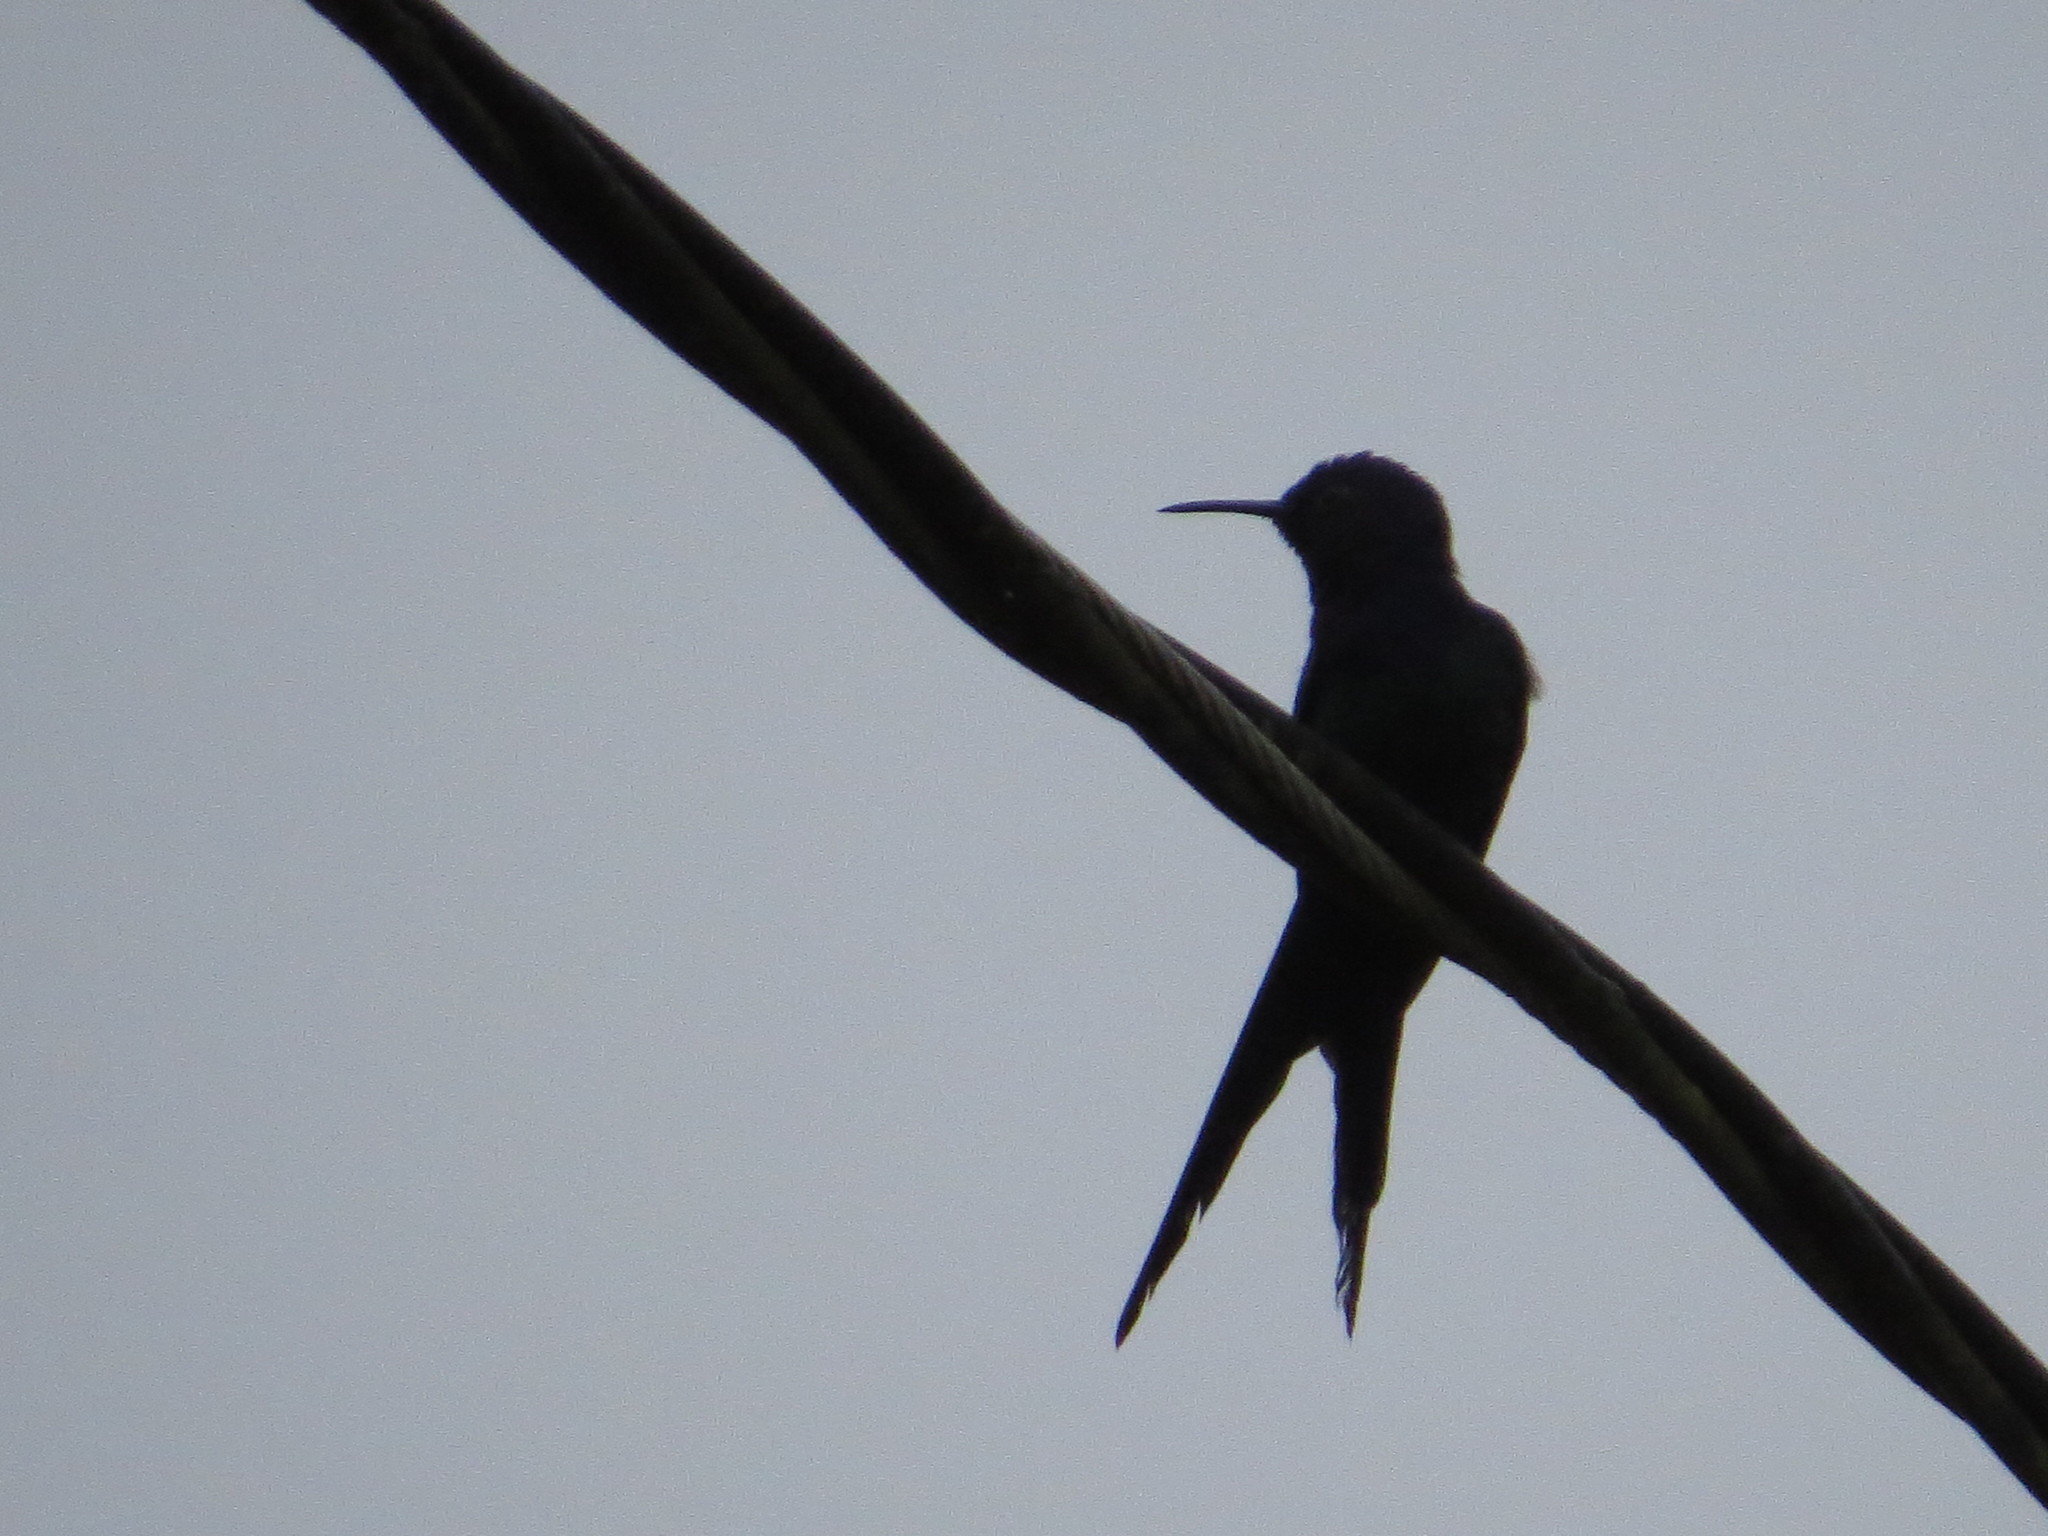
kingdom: Animalia
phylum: Chordata
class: Aves
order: Apodiformes
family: Trochilidae
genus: Eupetomena
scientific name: Eupetomena macroura
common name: Swallow-tailed hummingbird
